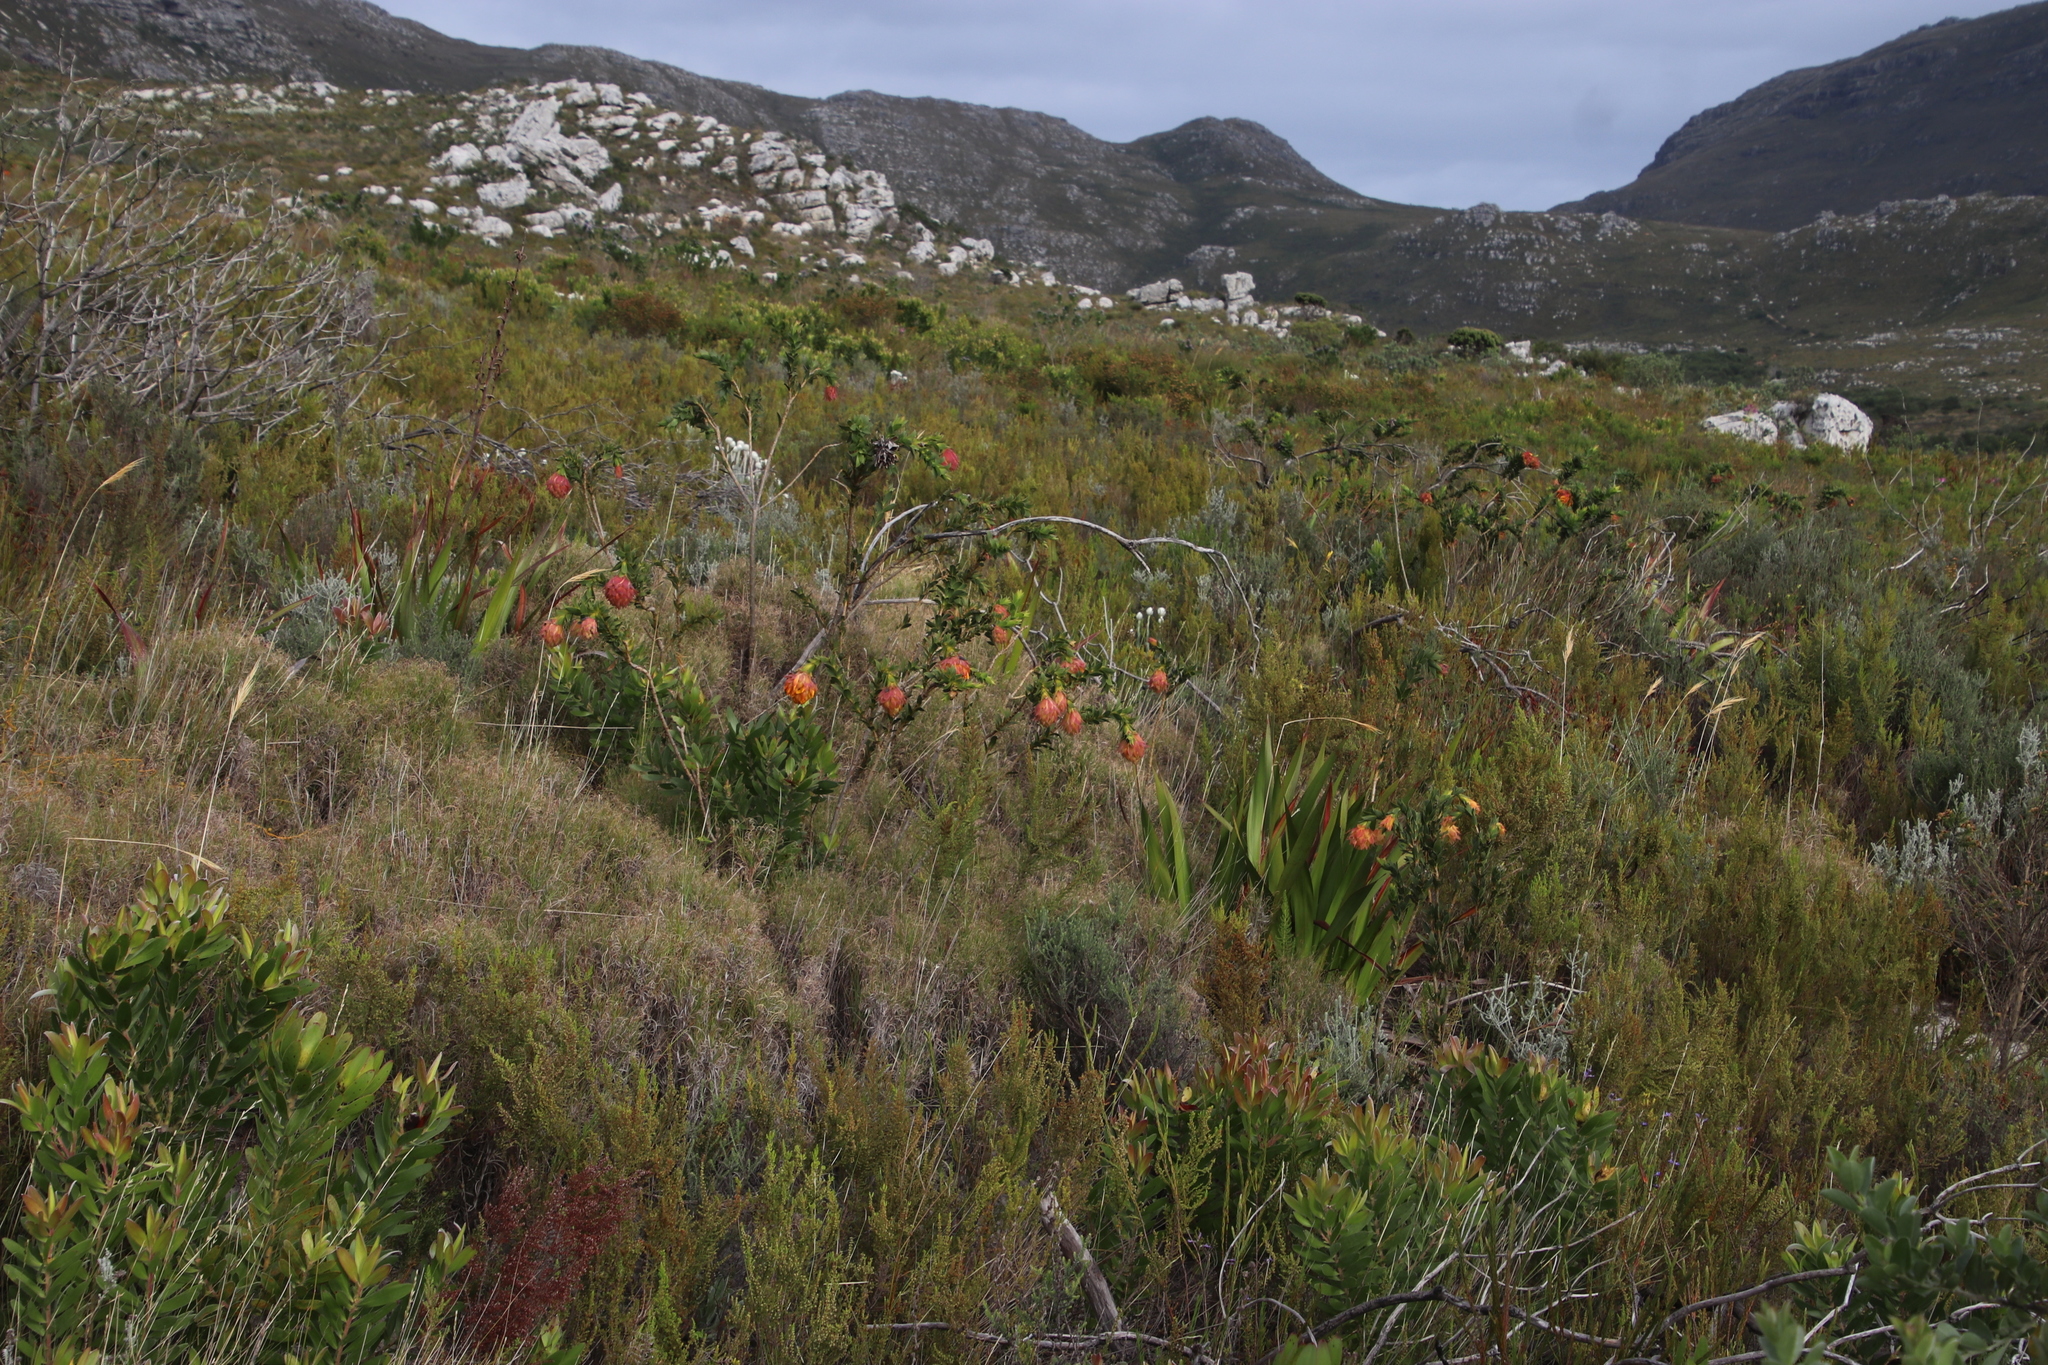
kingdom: Plantae
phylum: Tracheophyta
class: Magnoliopsida
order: Fabales
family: Fabaceae
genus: Liparia
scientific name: Liparia splendens
